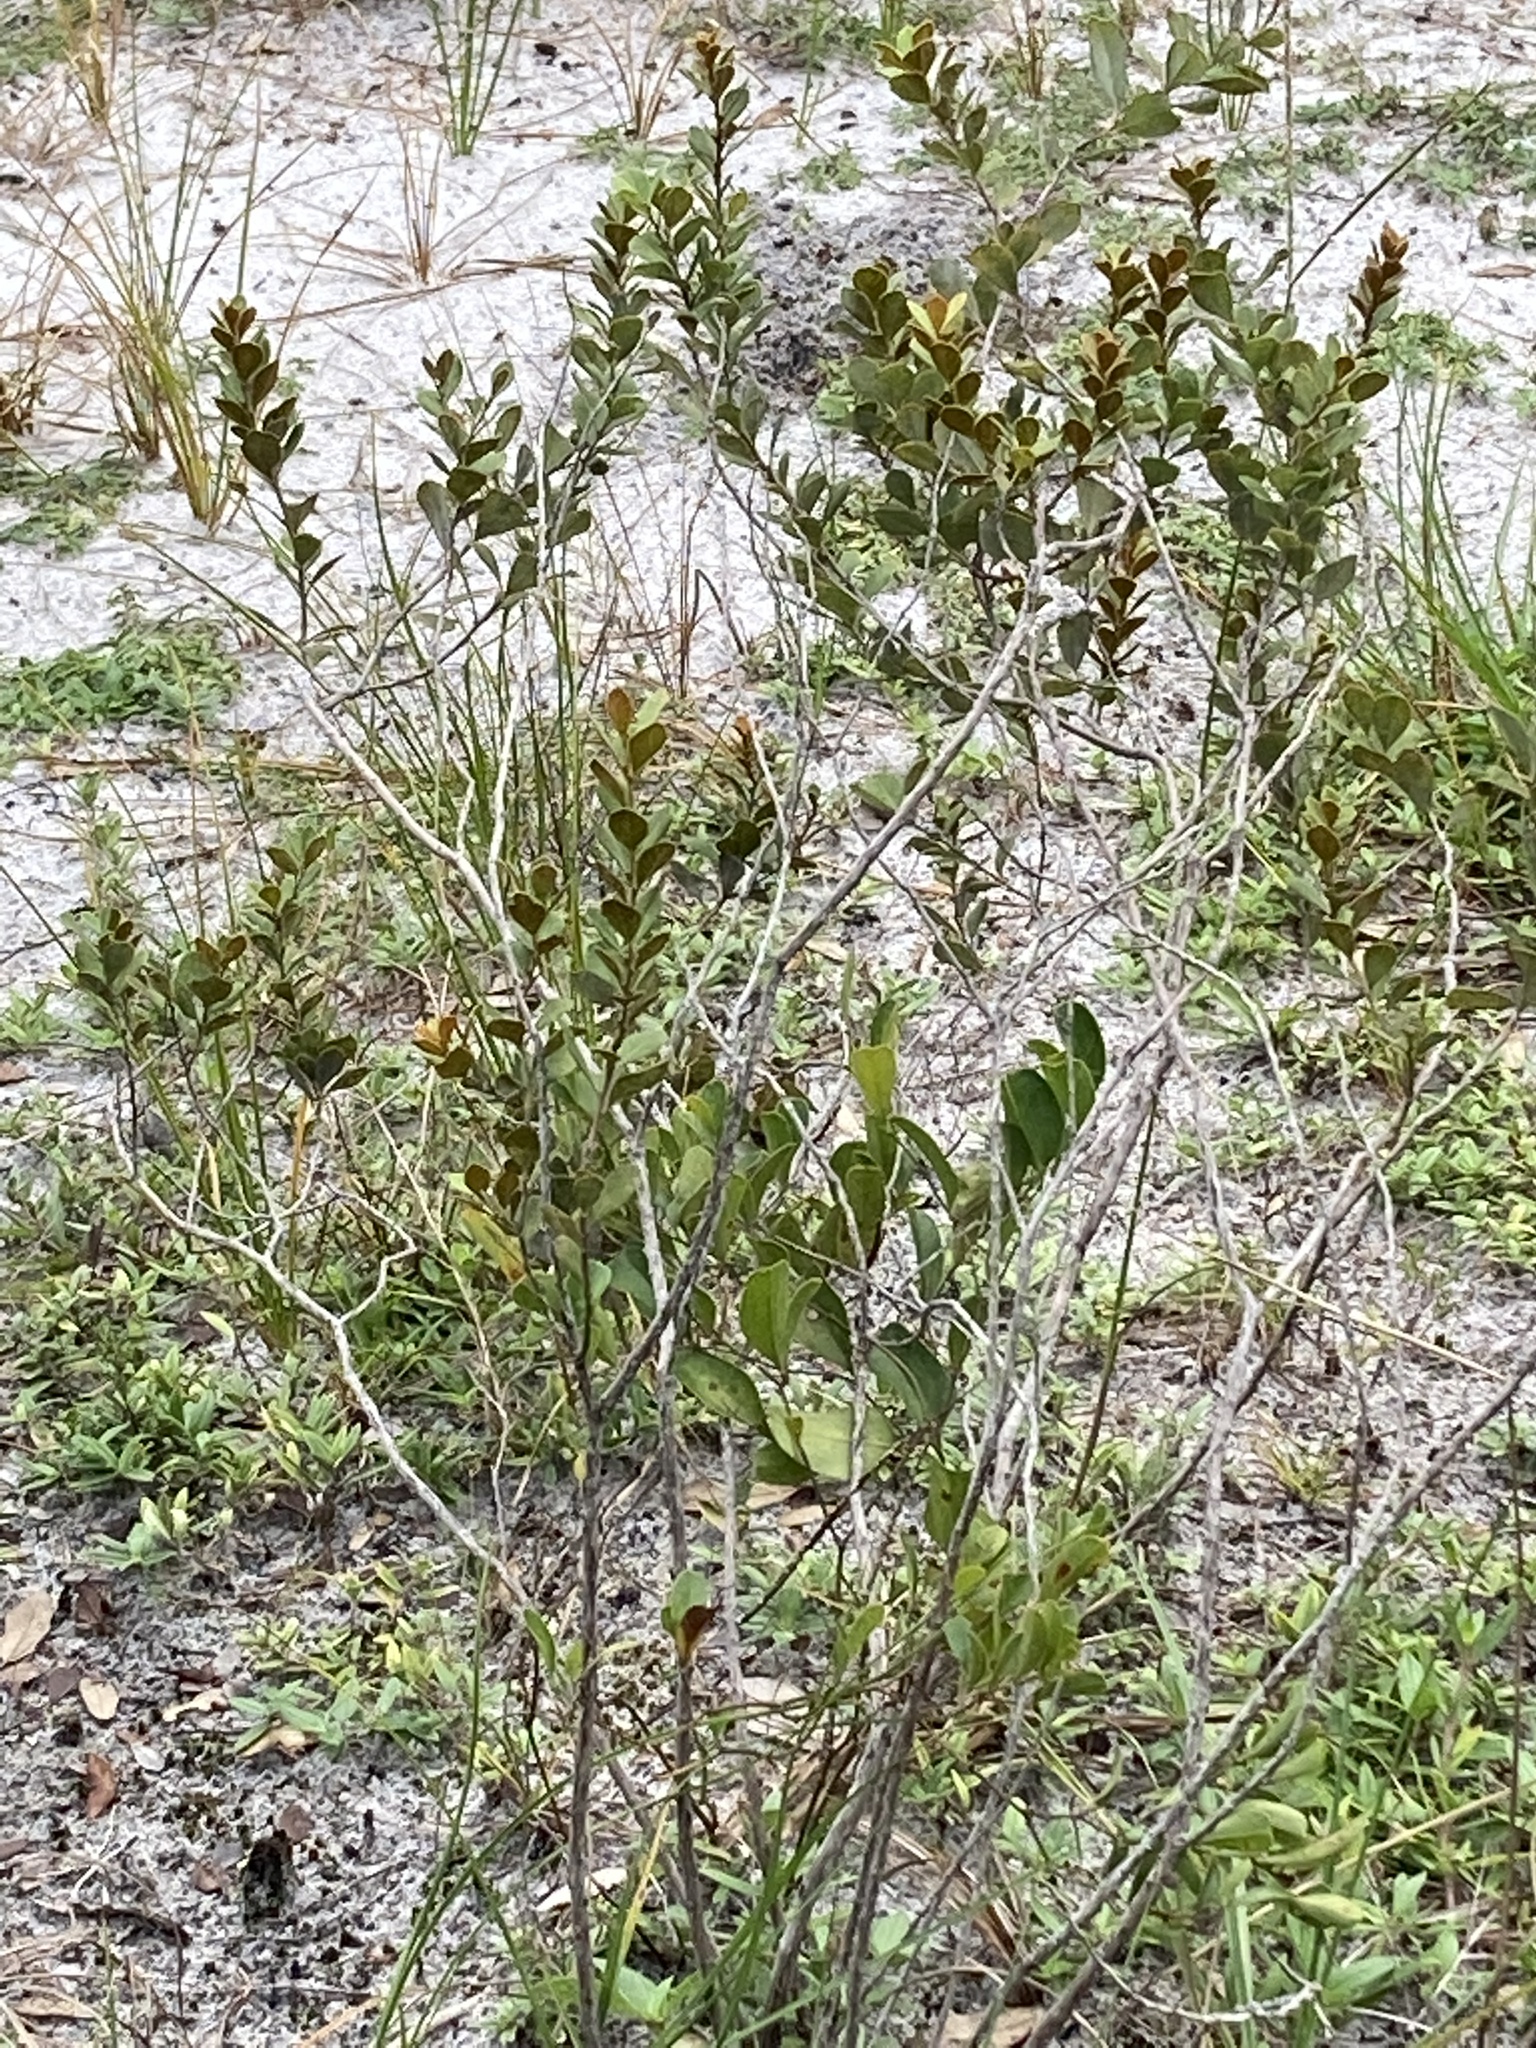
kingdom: Plantae
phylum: Tracheophyta
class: Magnoliopsida
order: Ericales
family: Ericaceae
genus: Lyonia
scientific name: Lyonia fruticosa
